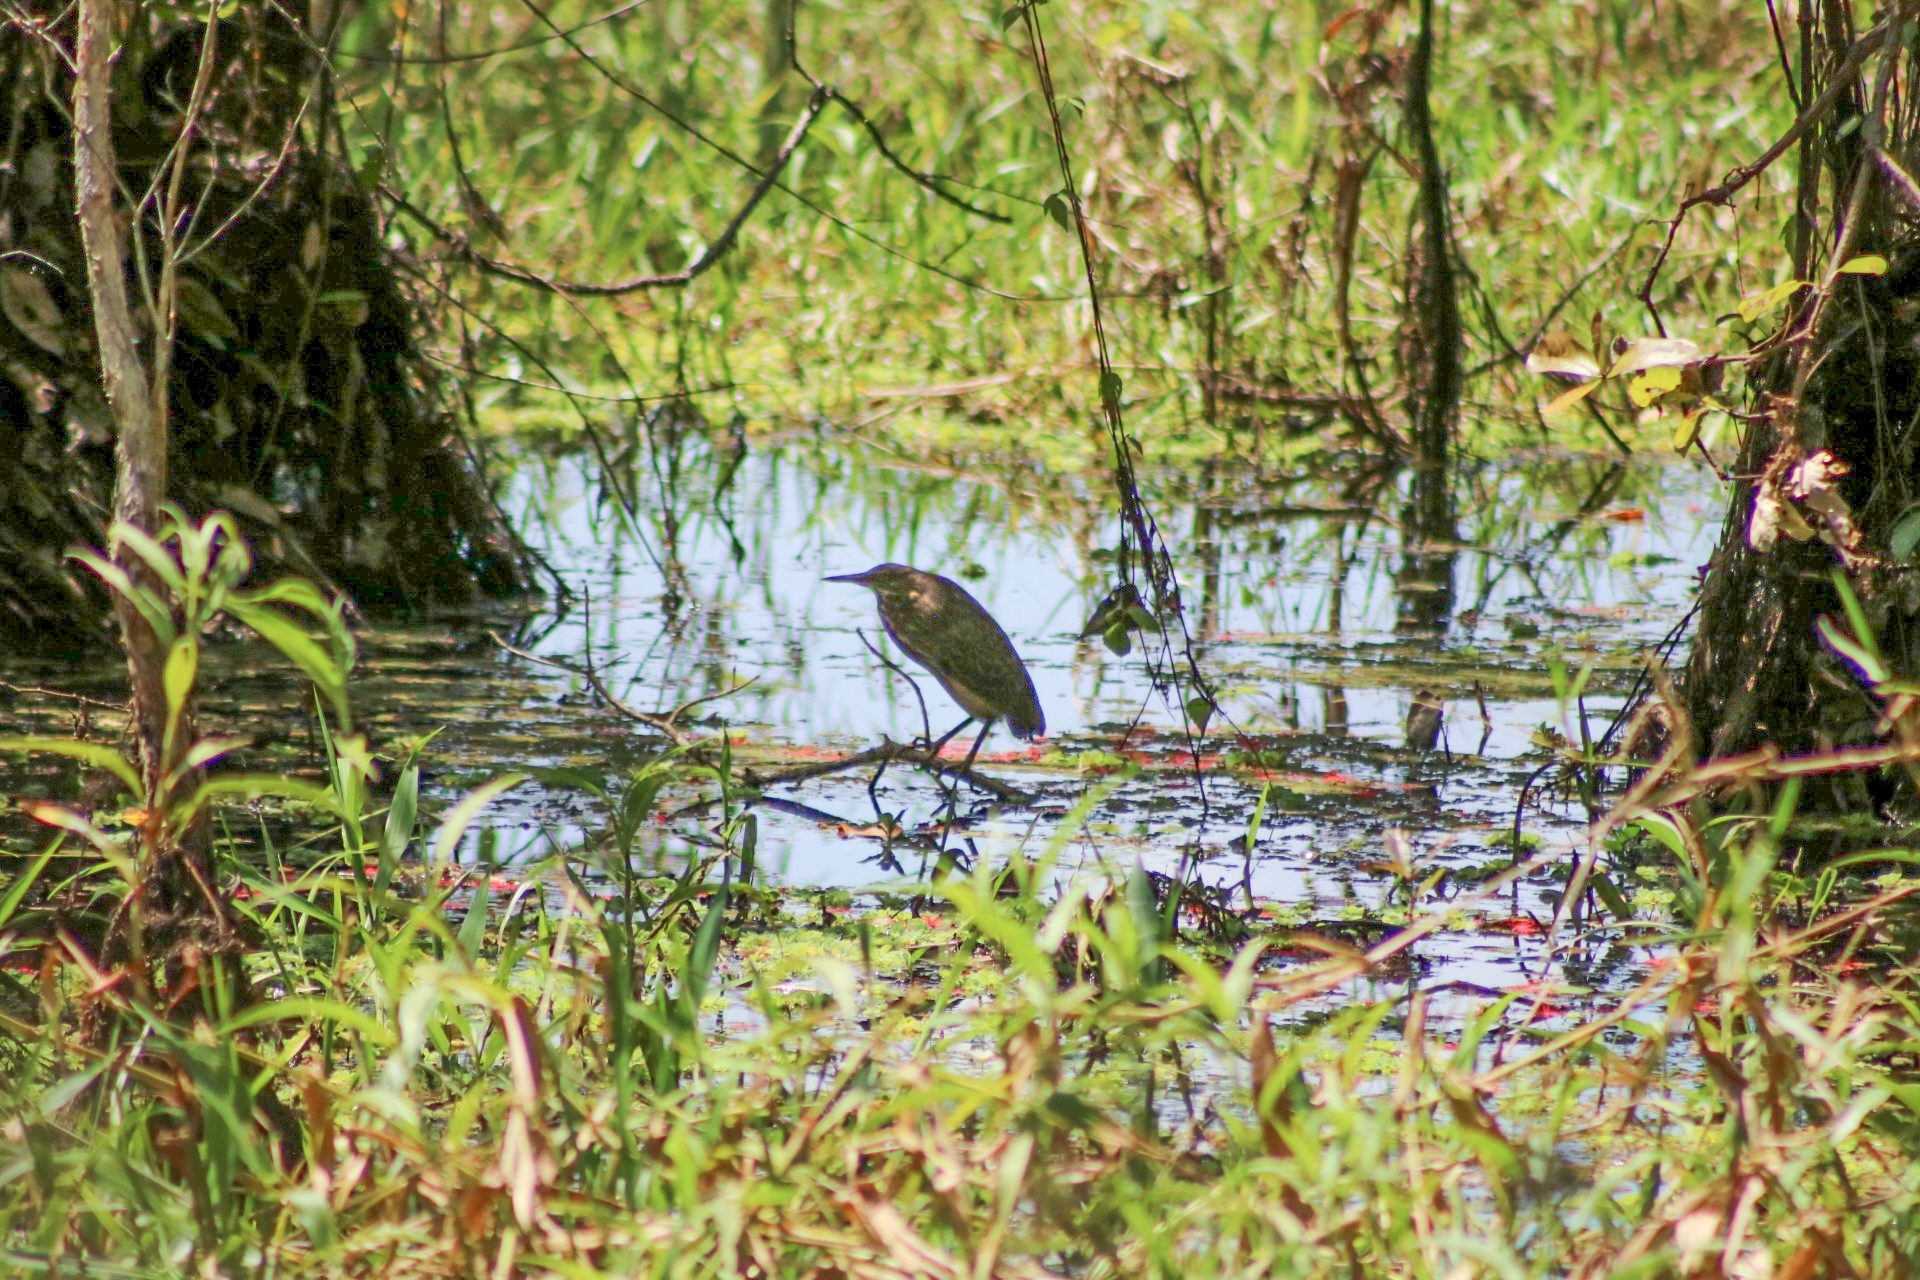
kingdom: Animalia
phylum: Chordata
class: Aves
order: Pelecaniformes
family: Ardeidae
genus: Dupetor
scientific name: Dupetor flavicollis
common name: Black bittern
